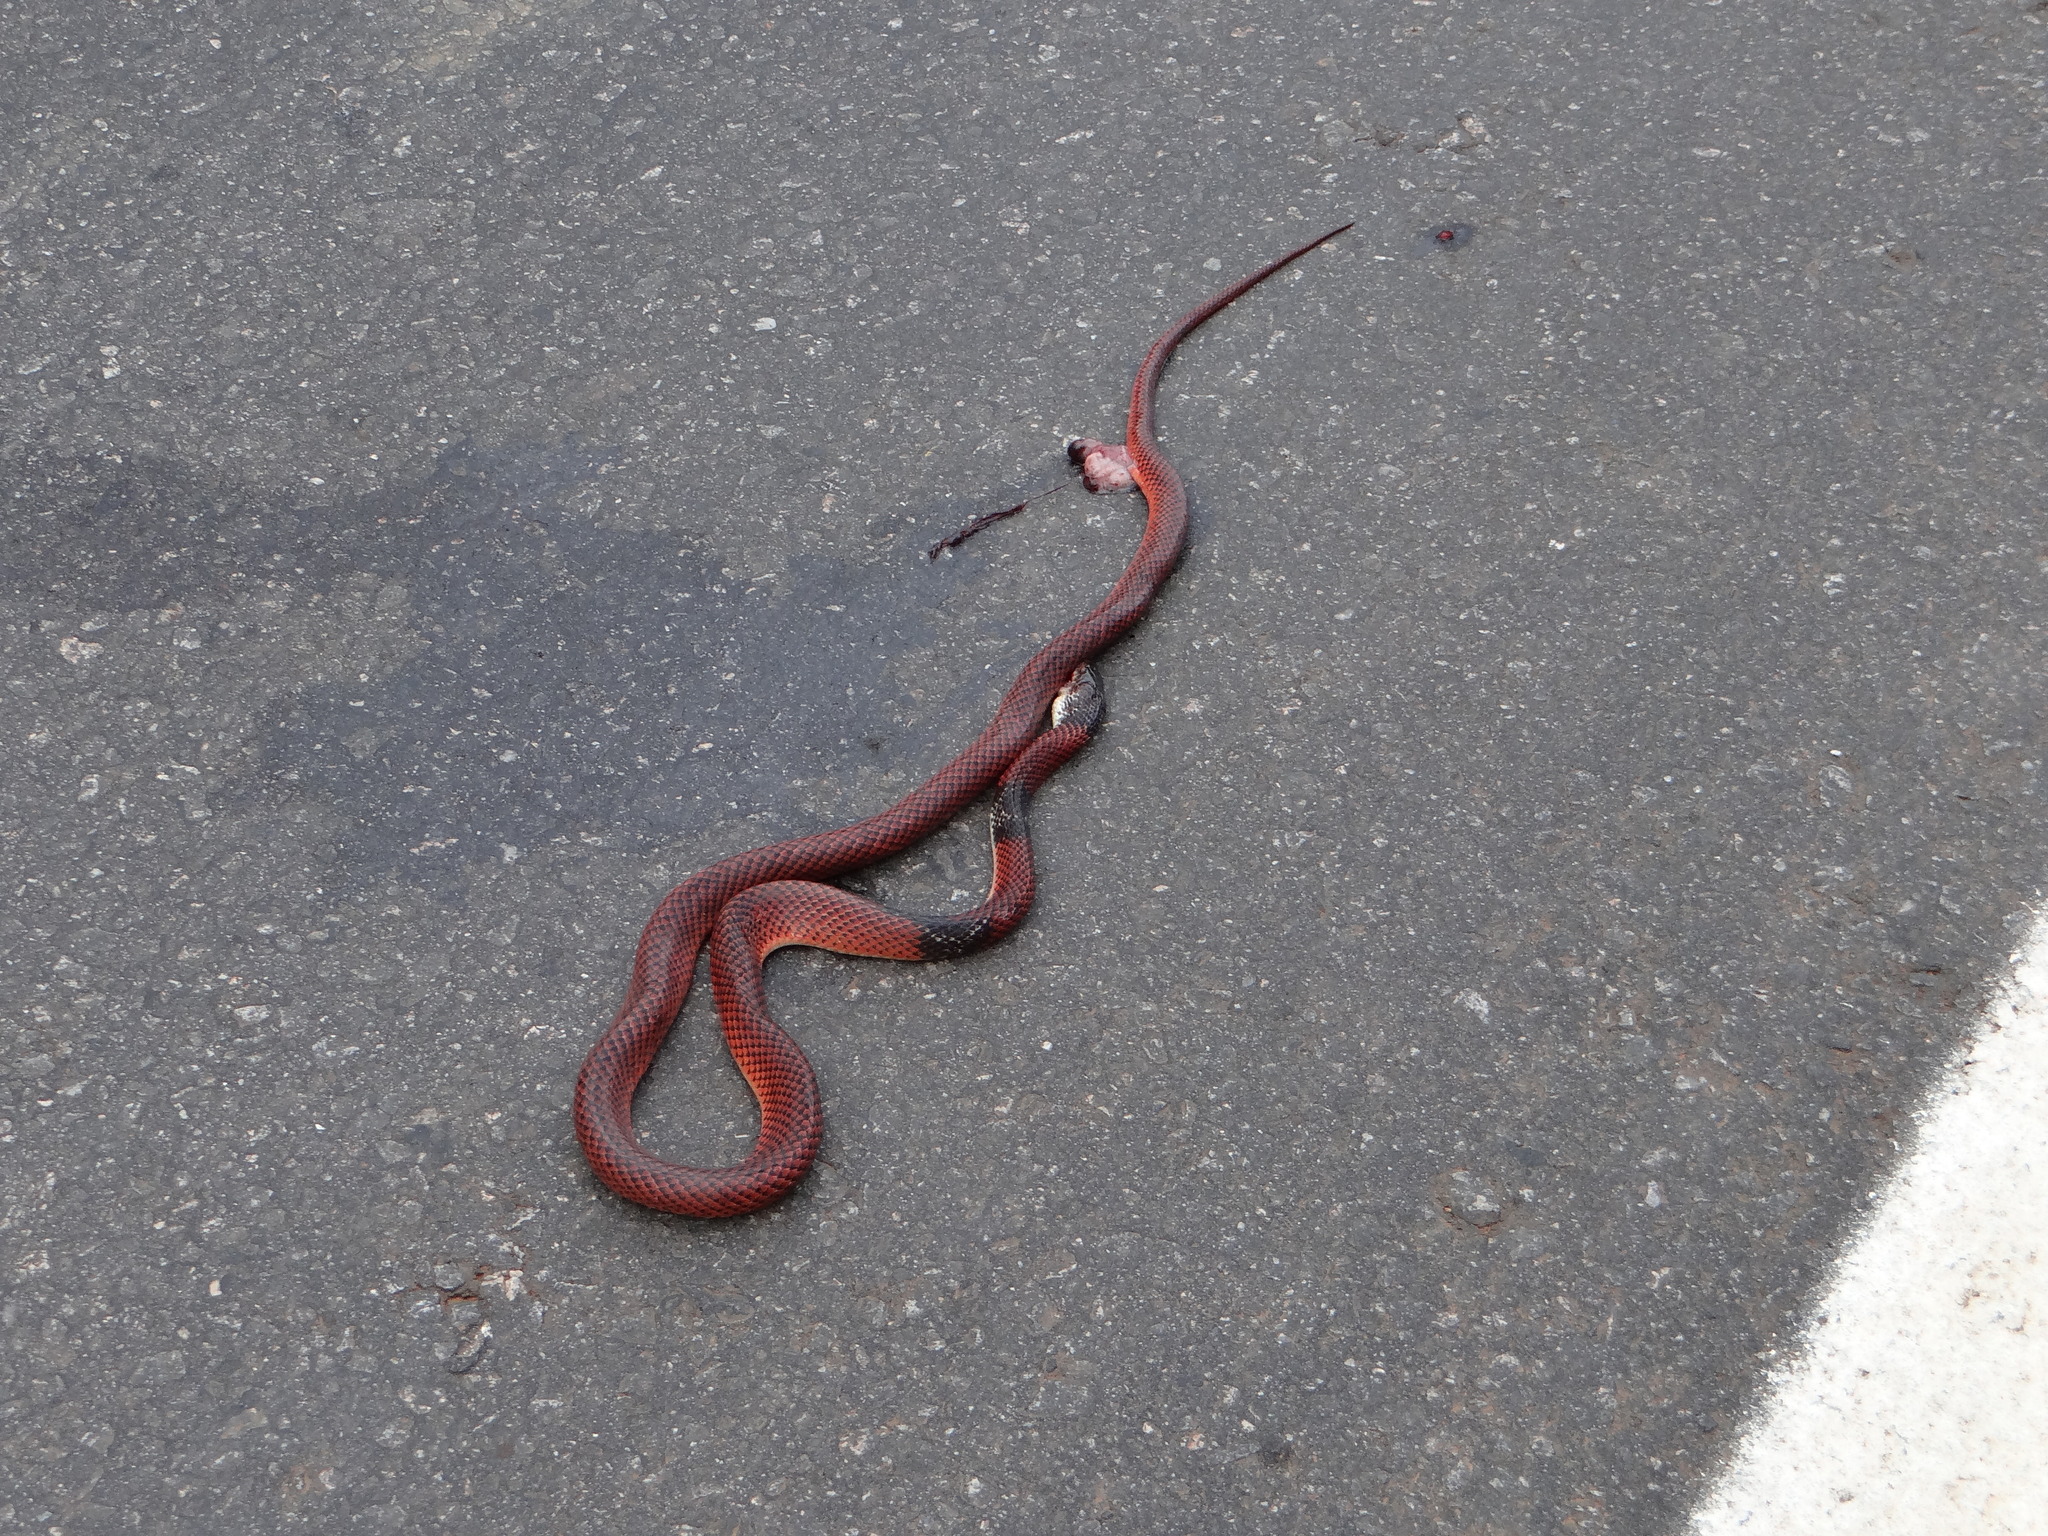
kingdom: Animalia
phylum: Chordata
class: Squamata
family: Colubridae
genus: Oxyrhopus
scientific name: Oxyrhopus melanogenys
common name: Tschudi's false coral snake
